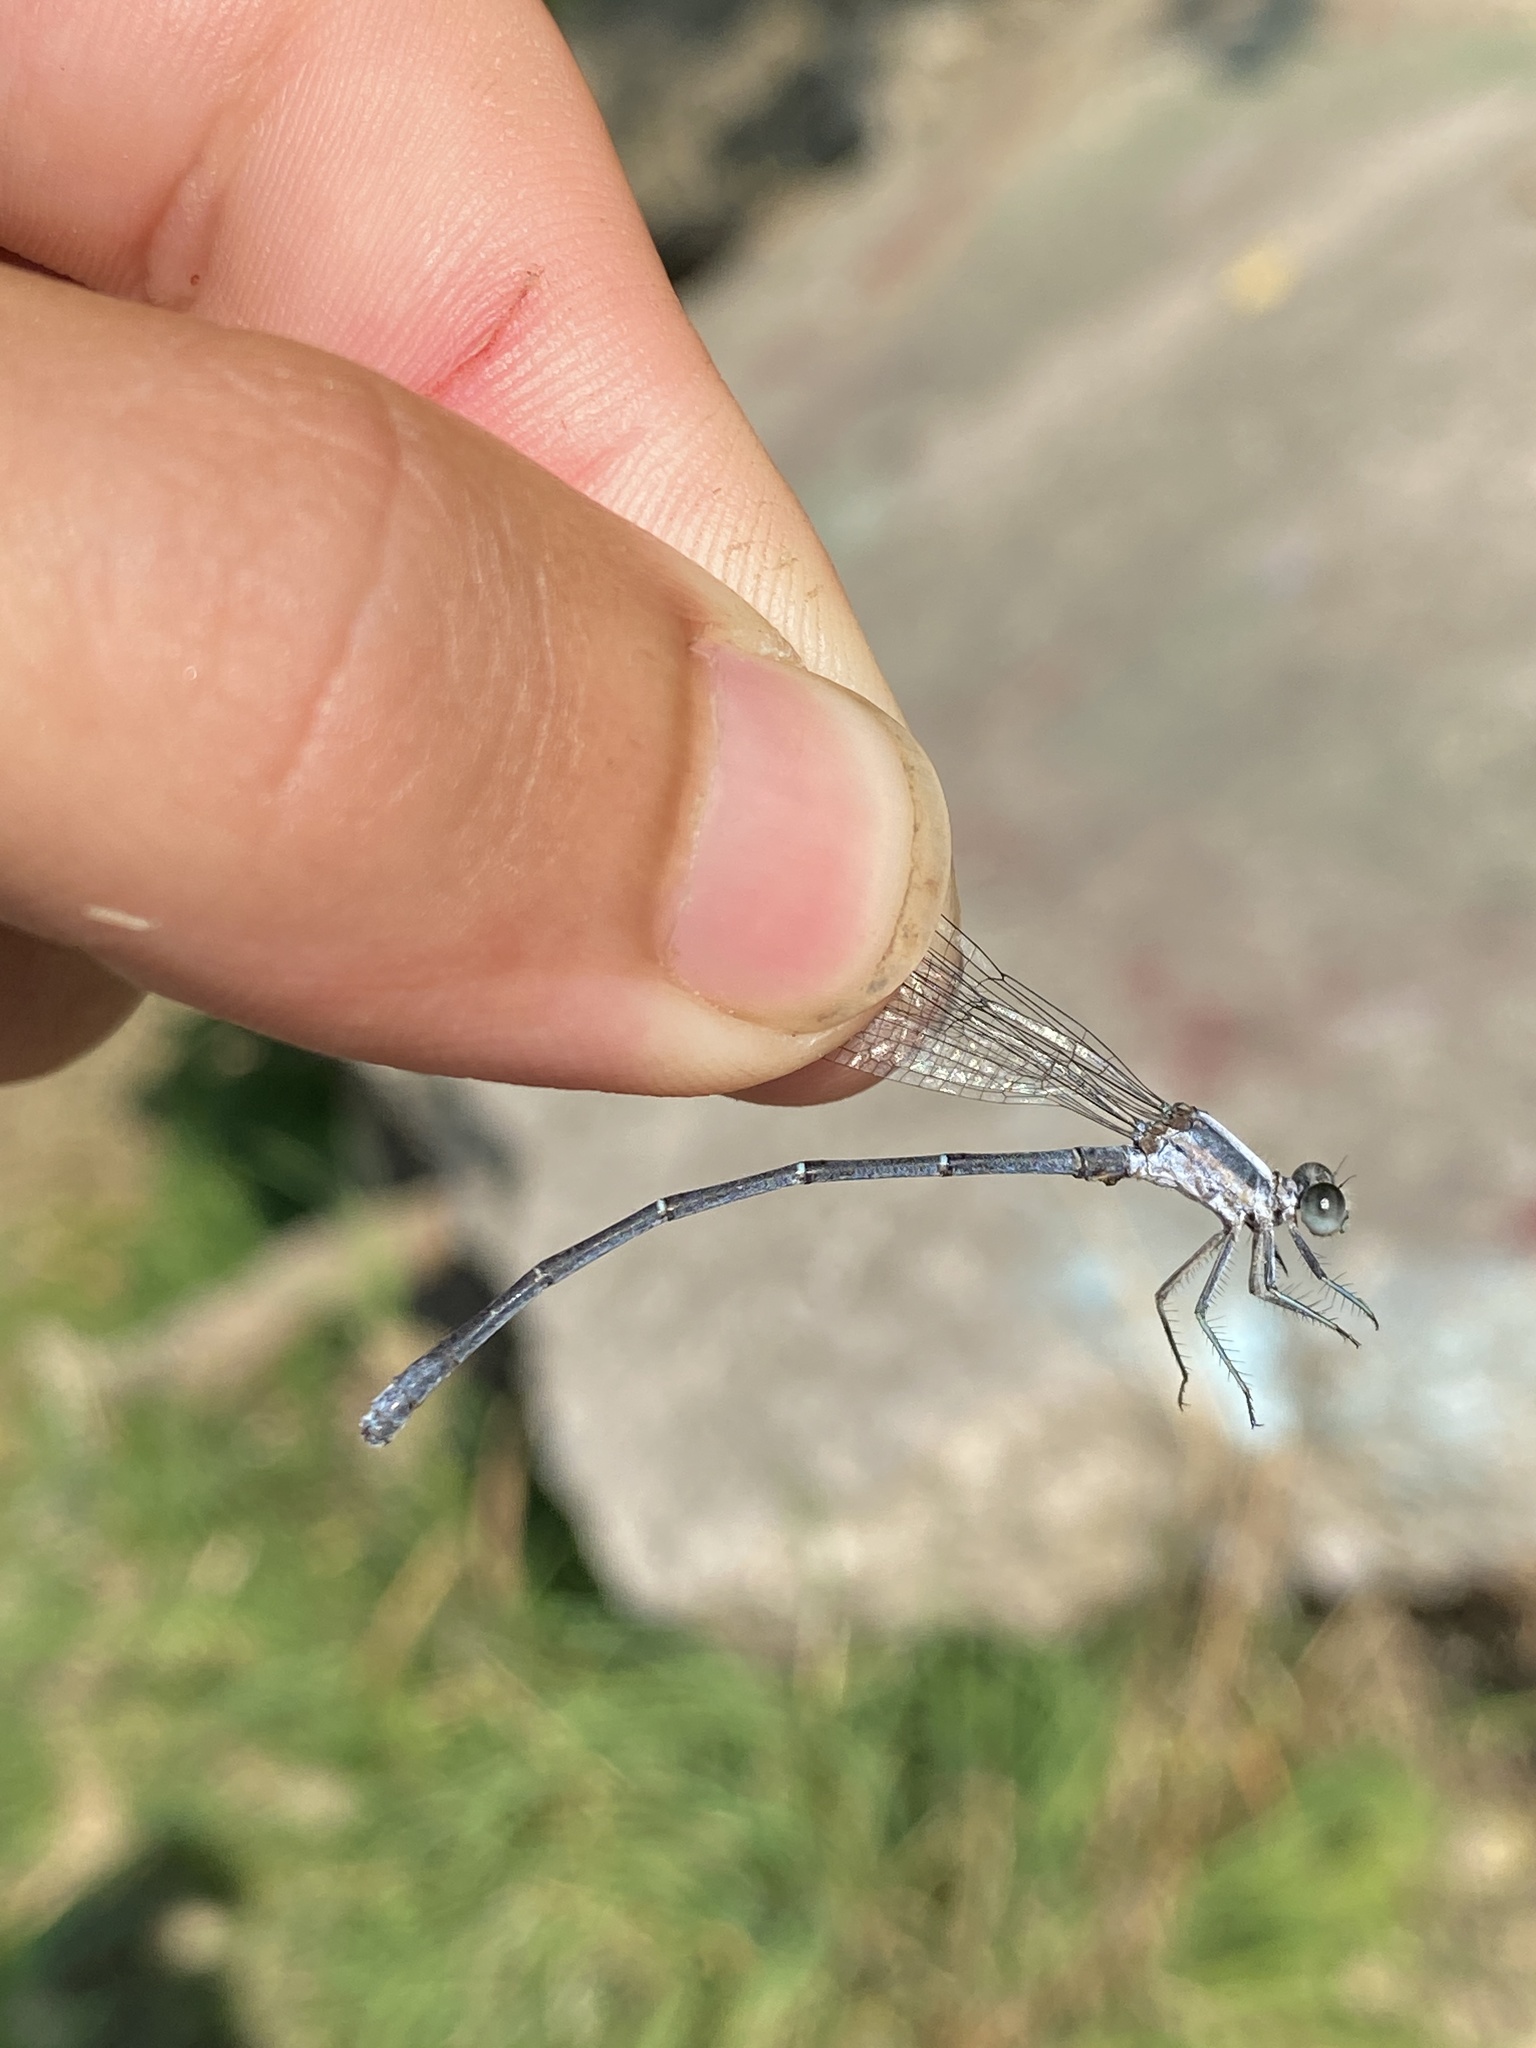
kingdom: Animalia
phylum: Arthropoda
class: Insecta
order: Odonata
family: Coenagrionidae
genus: Argia
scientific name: Argia moesta
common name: Powdered dancer
